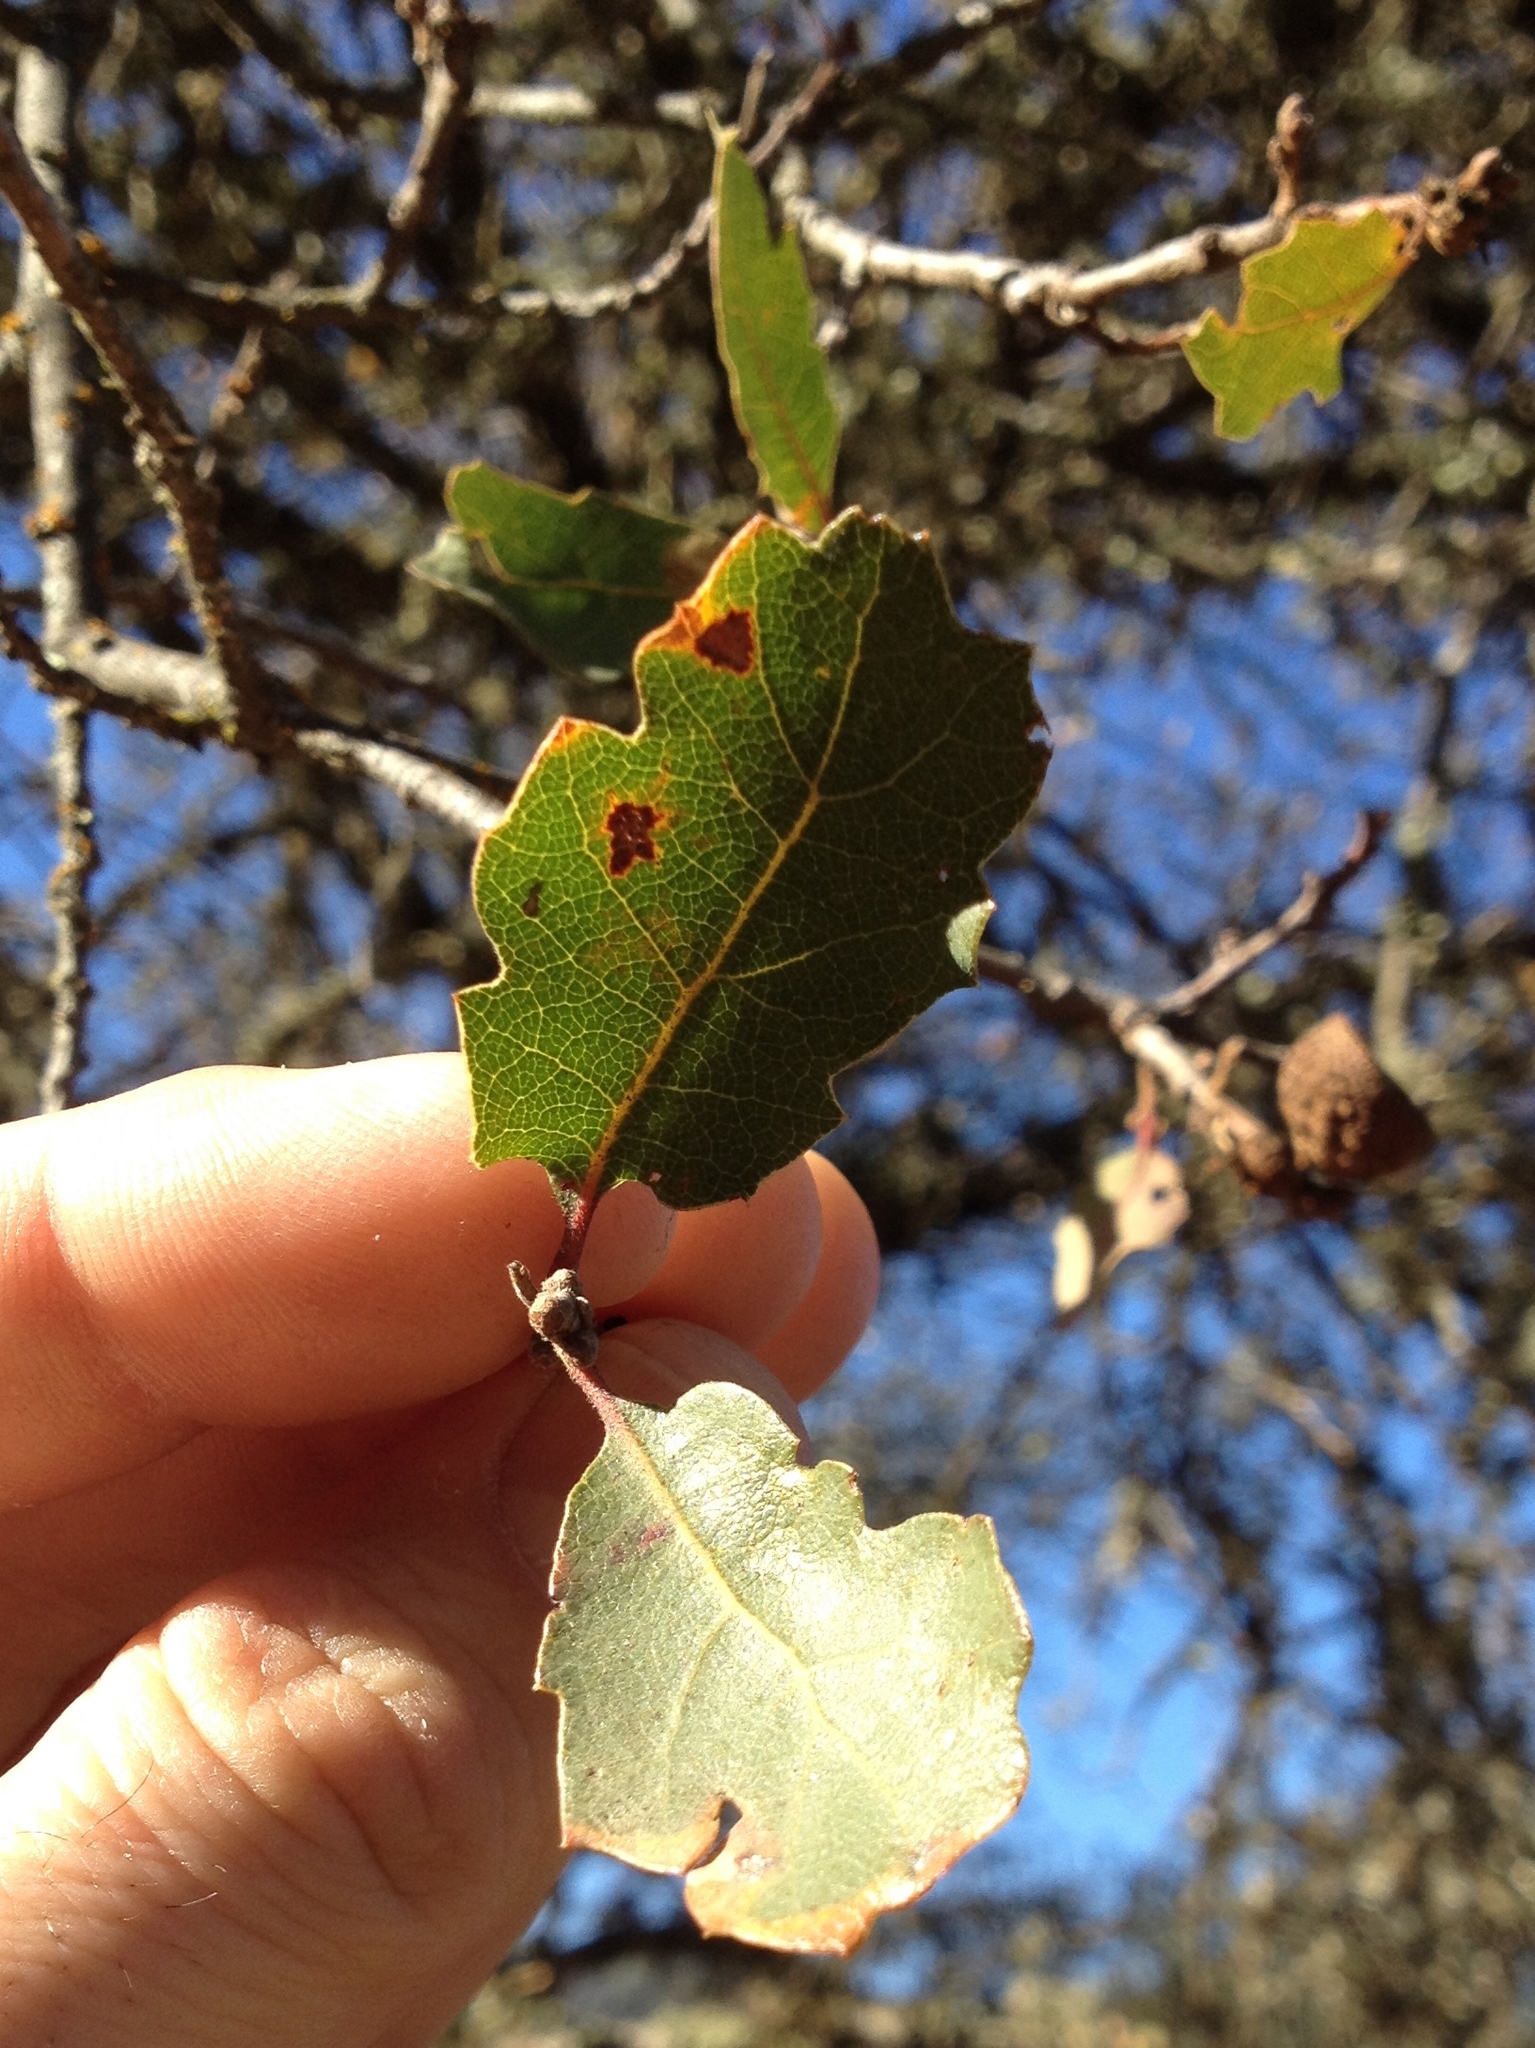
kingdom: Plantae
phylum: Tracheophyta
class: Magnoliopsida
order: Fagales
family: Fagaceae
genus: Quercus
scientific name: Quercus douglasii
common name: Blue oak
